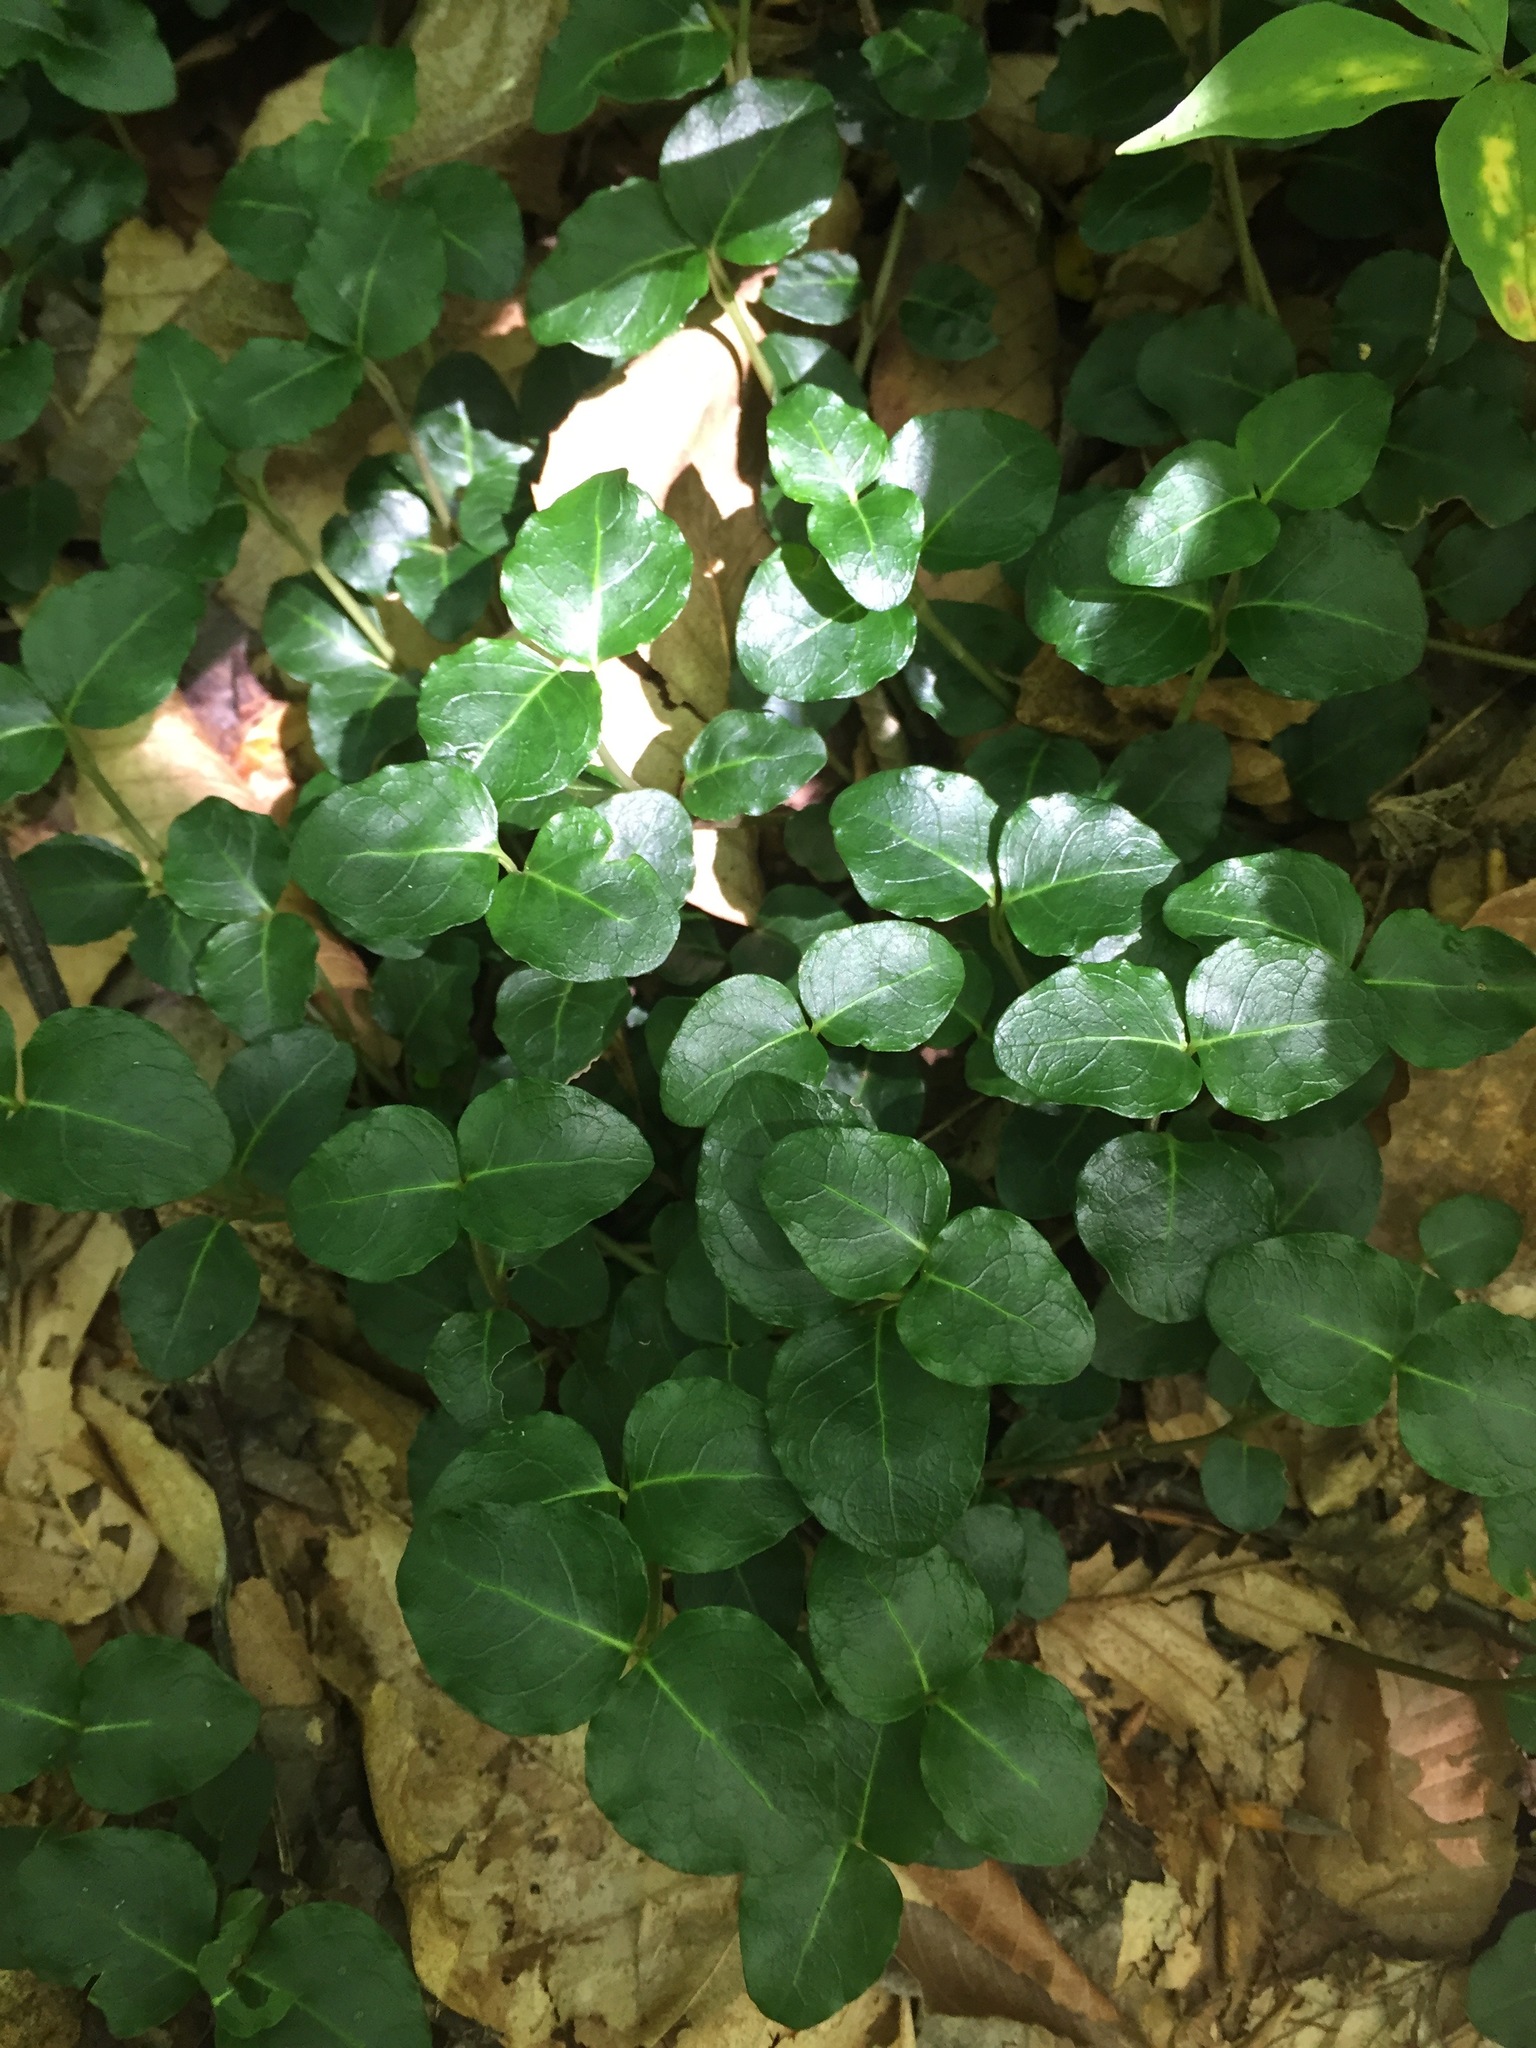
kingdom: Plantae
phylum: Tracheophyta
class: Magnoliopsida
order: Gentianales
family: Rubiaceae
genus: Mitchella
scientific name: Mitchella repens
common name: Partridge-berry
